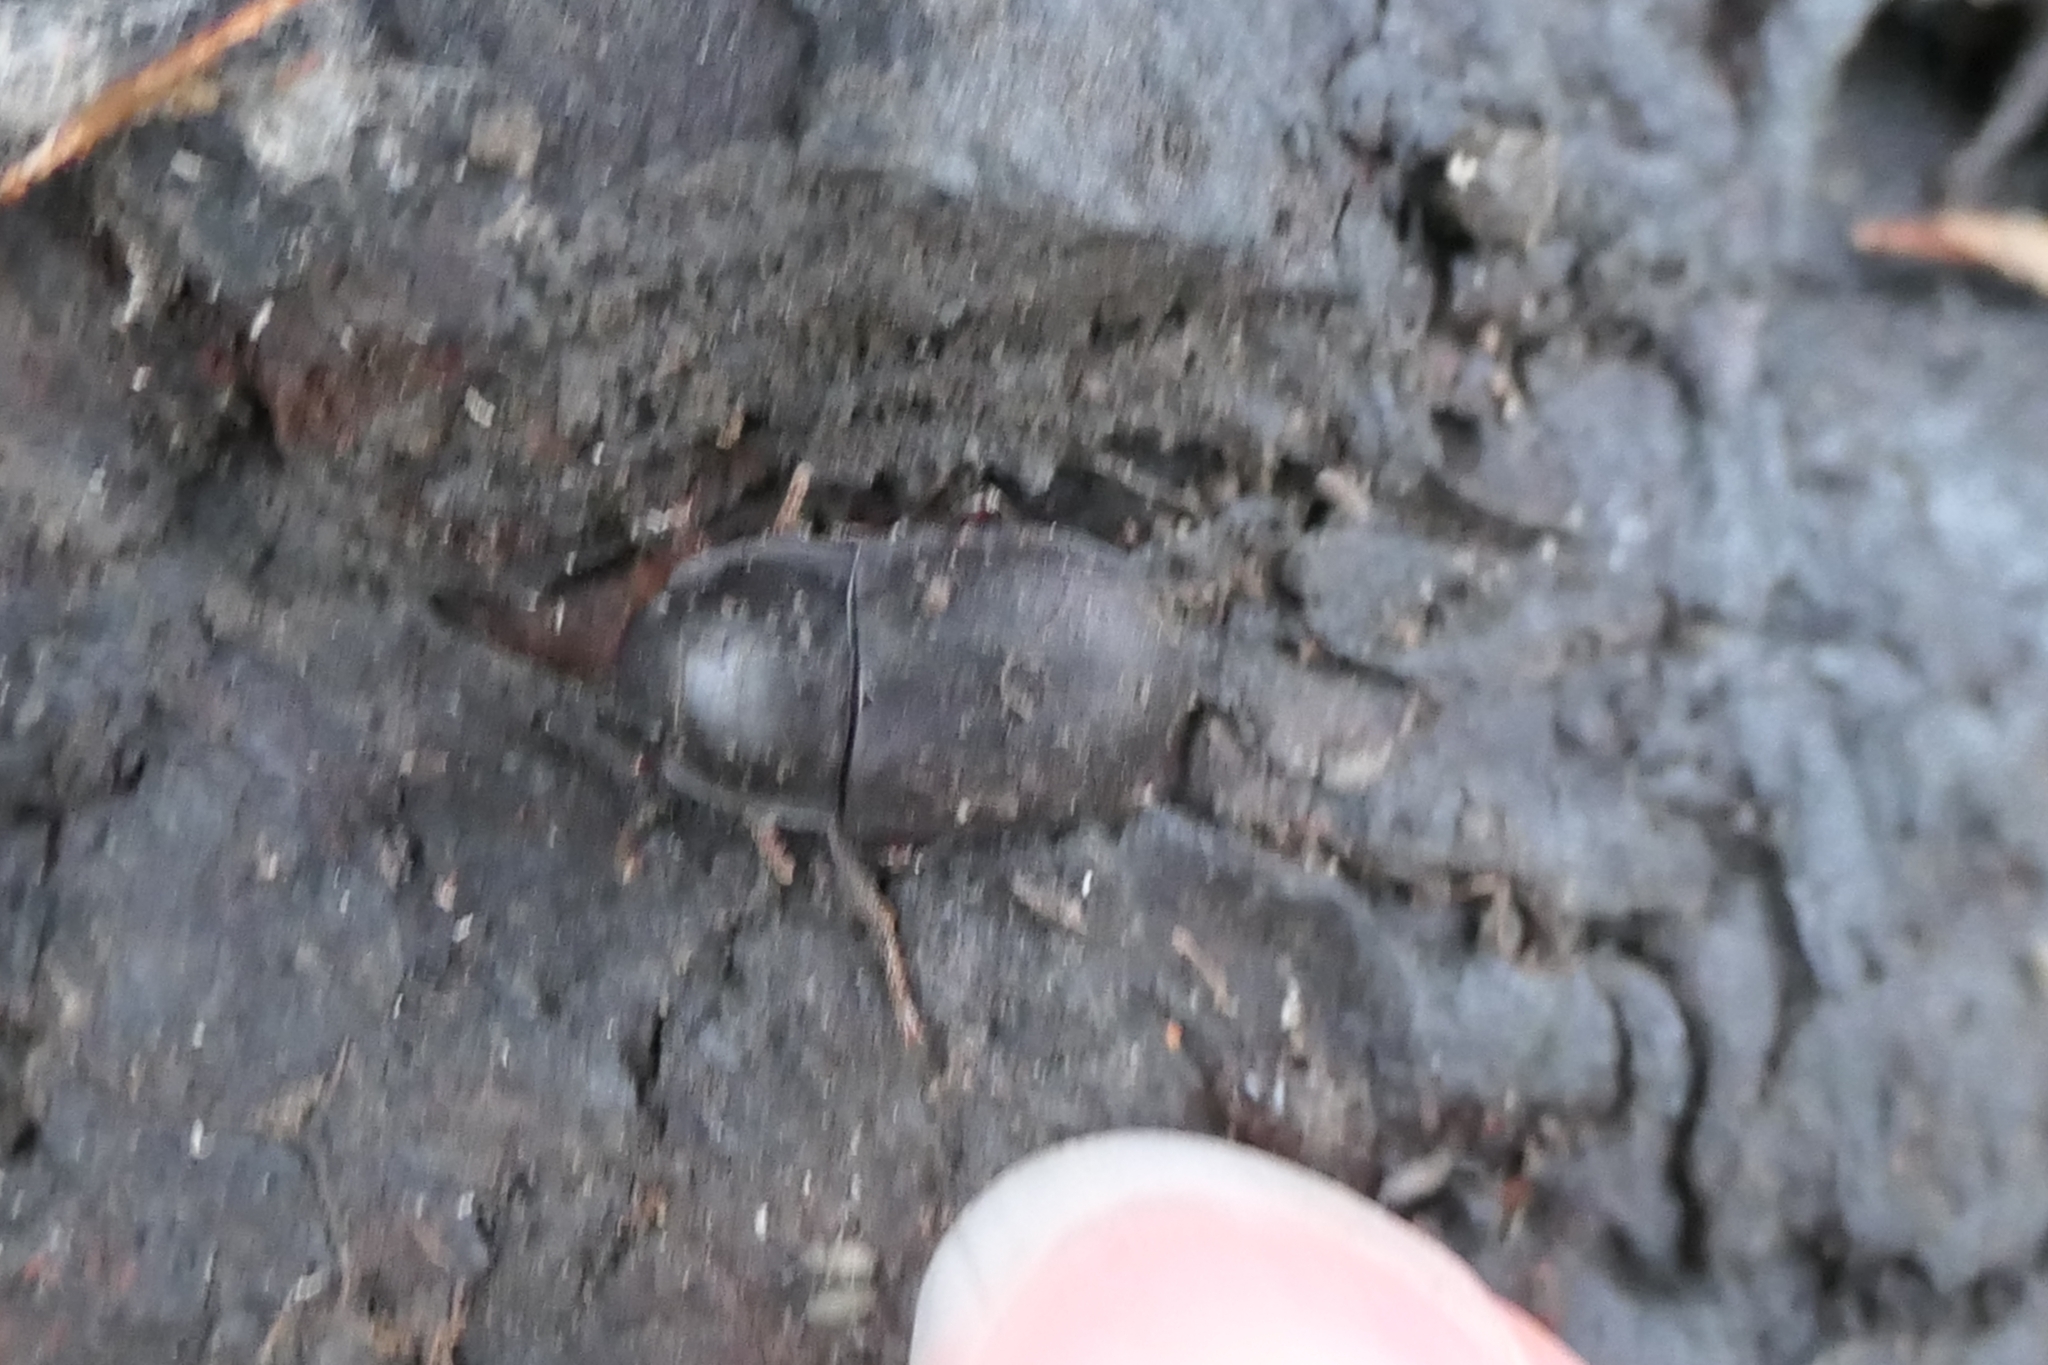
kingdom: Animalia
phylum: Arthropoda
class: Insecta
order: Coleoptera
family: Tenebrionidae
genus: Mimopeus
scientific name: Mimopeus
